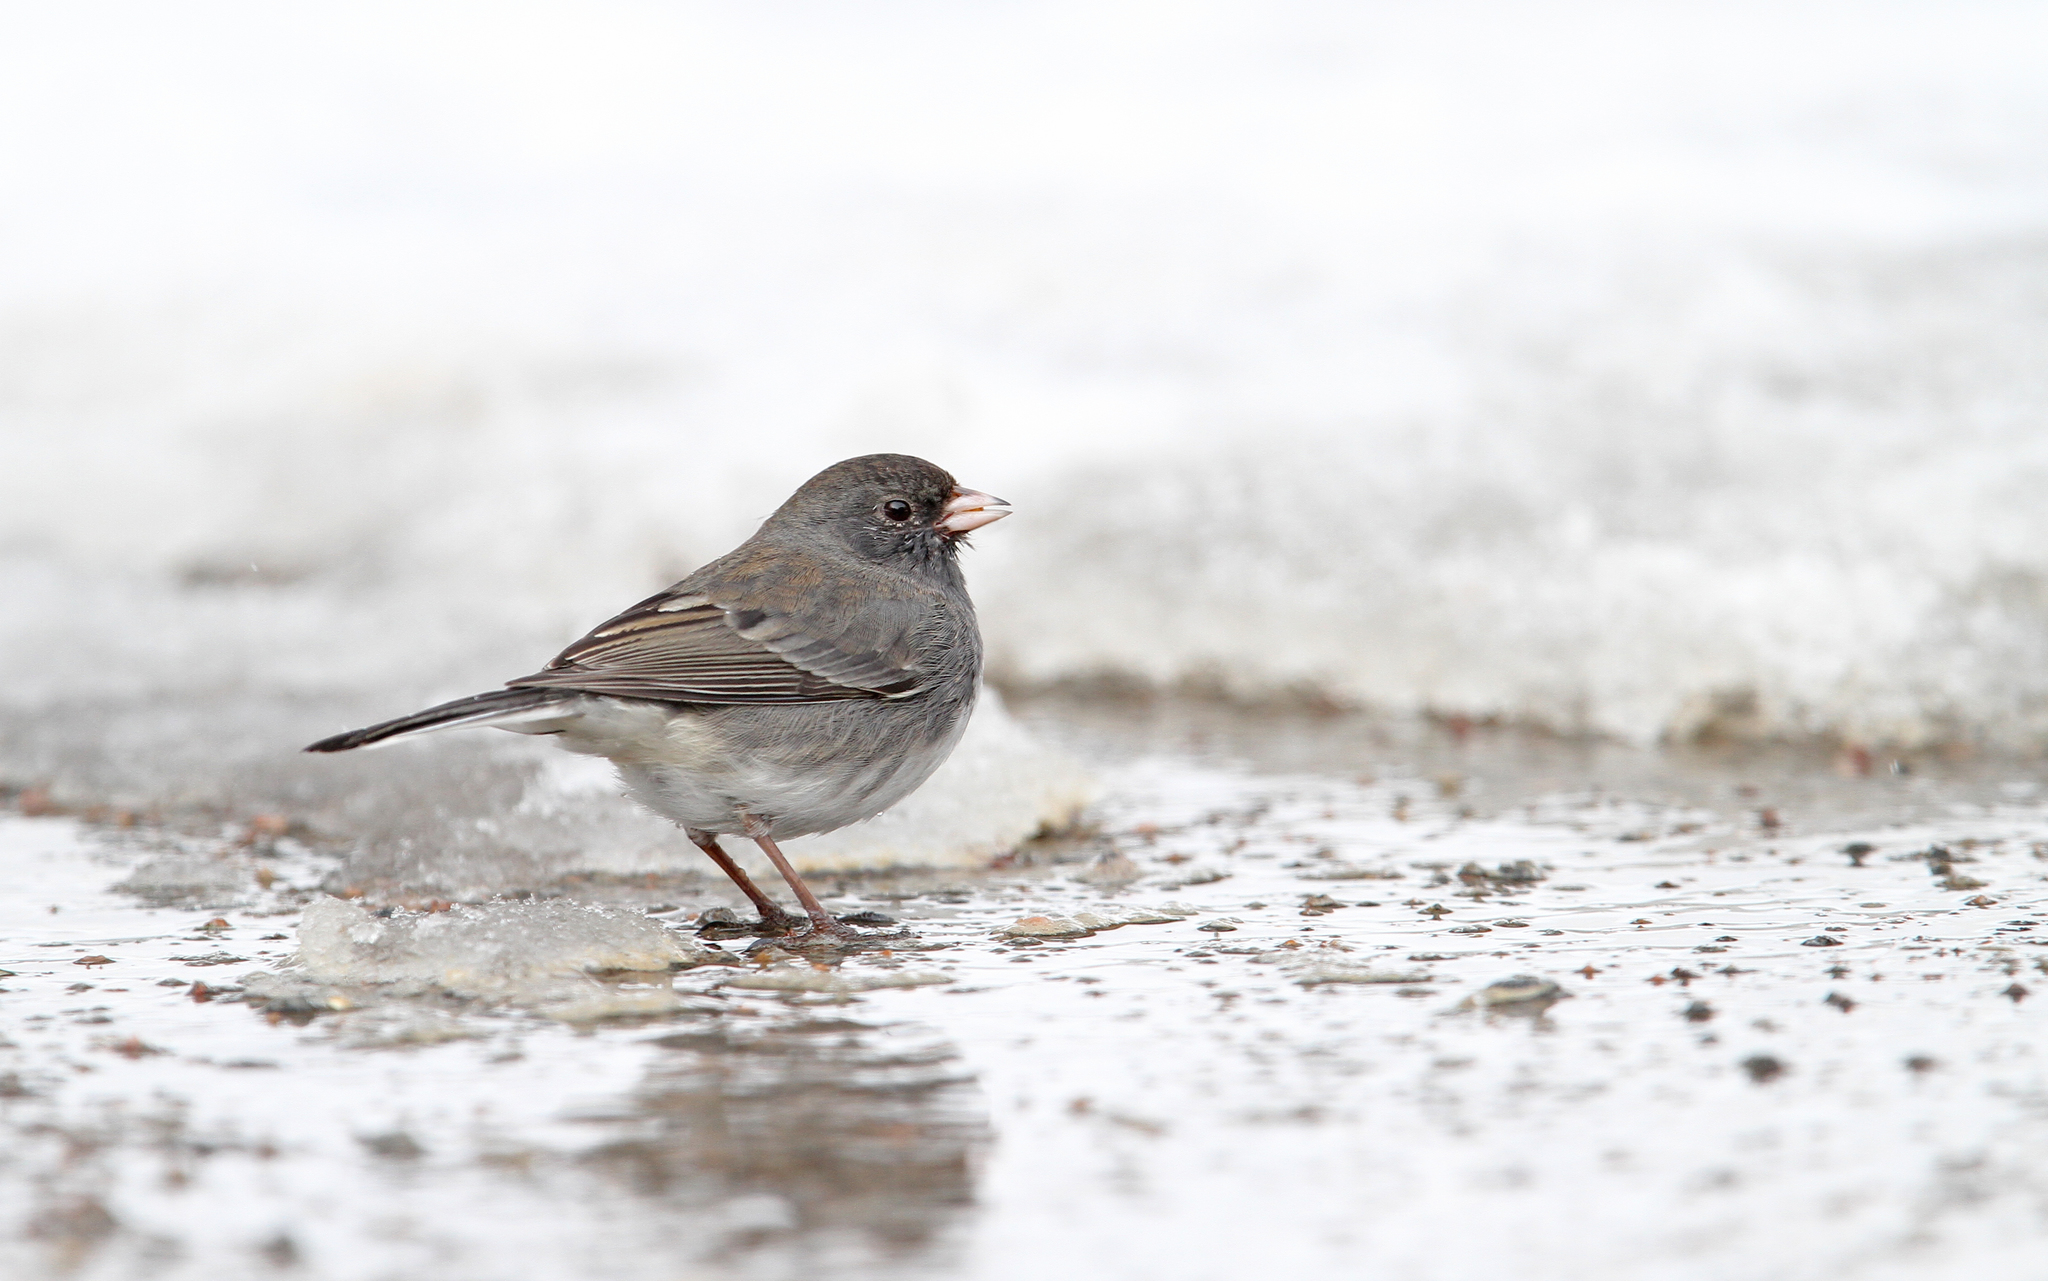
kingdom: Animalia
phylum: Chordata
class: Aves
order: Passeriformes
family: Passerellidae
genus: Junco
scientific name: Junco hyemalis
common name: Dark-eyed junco
